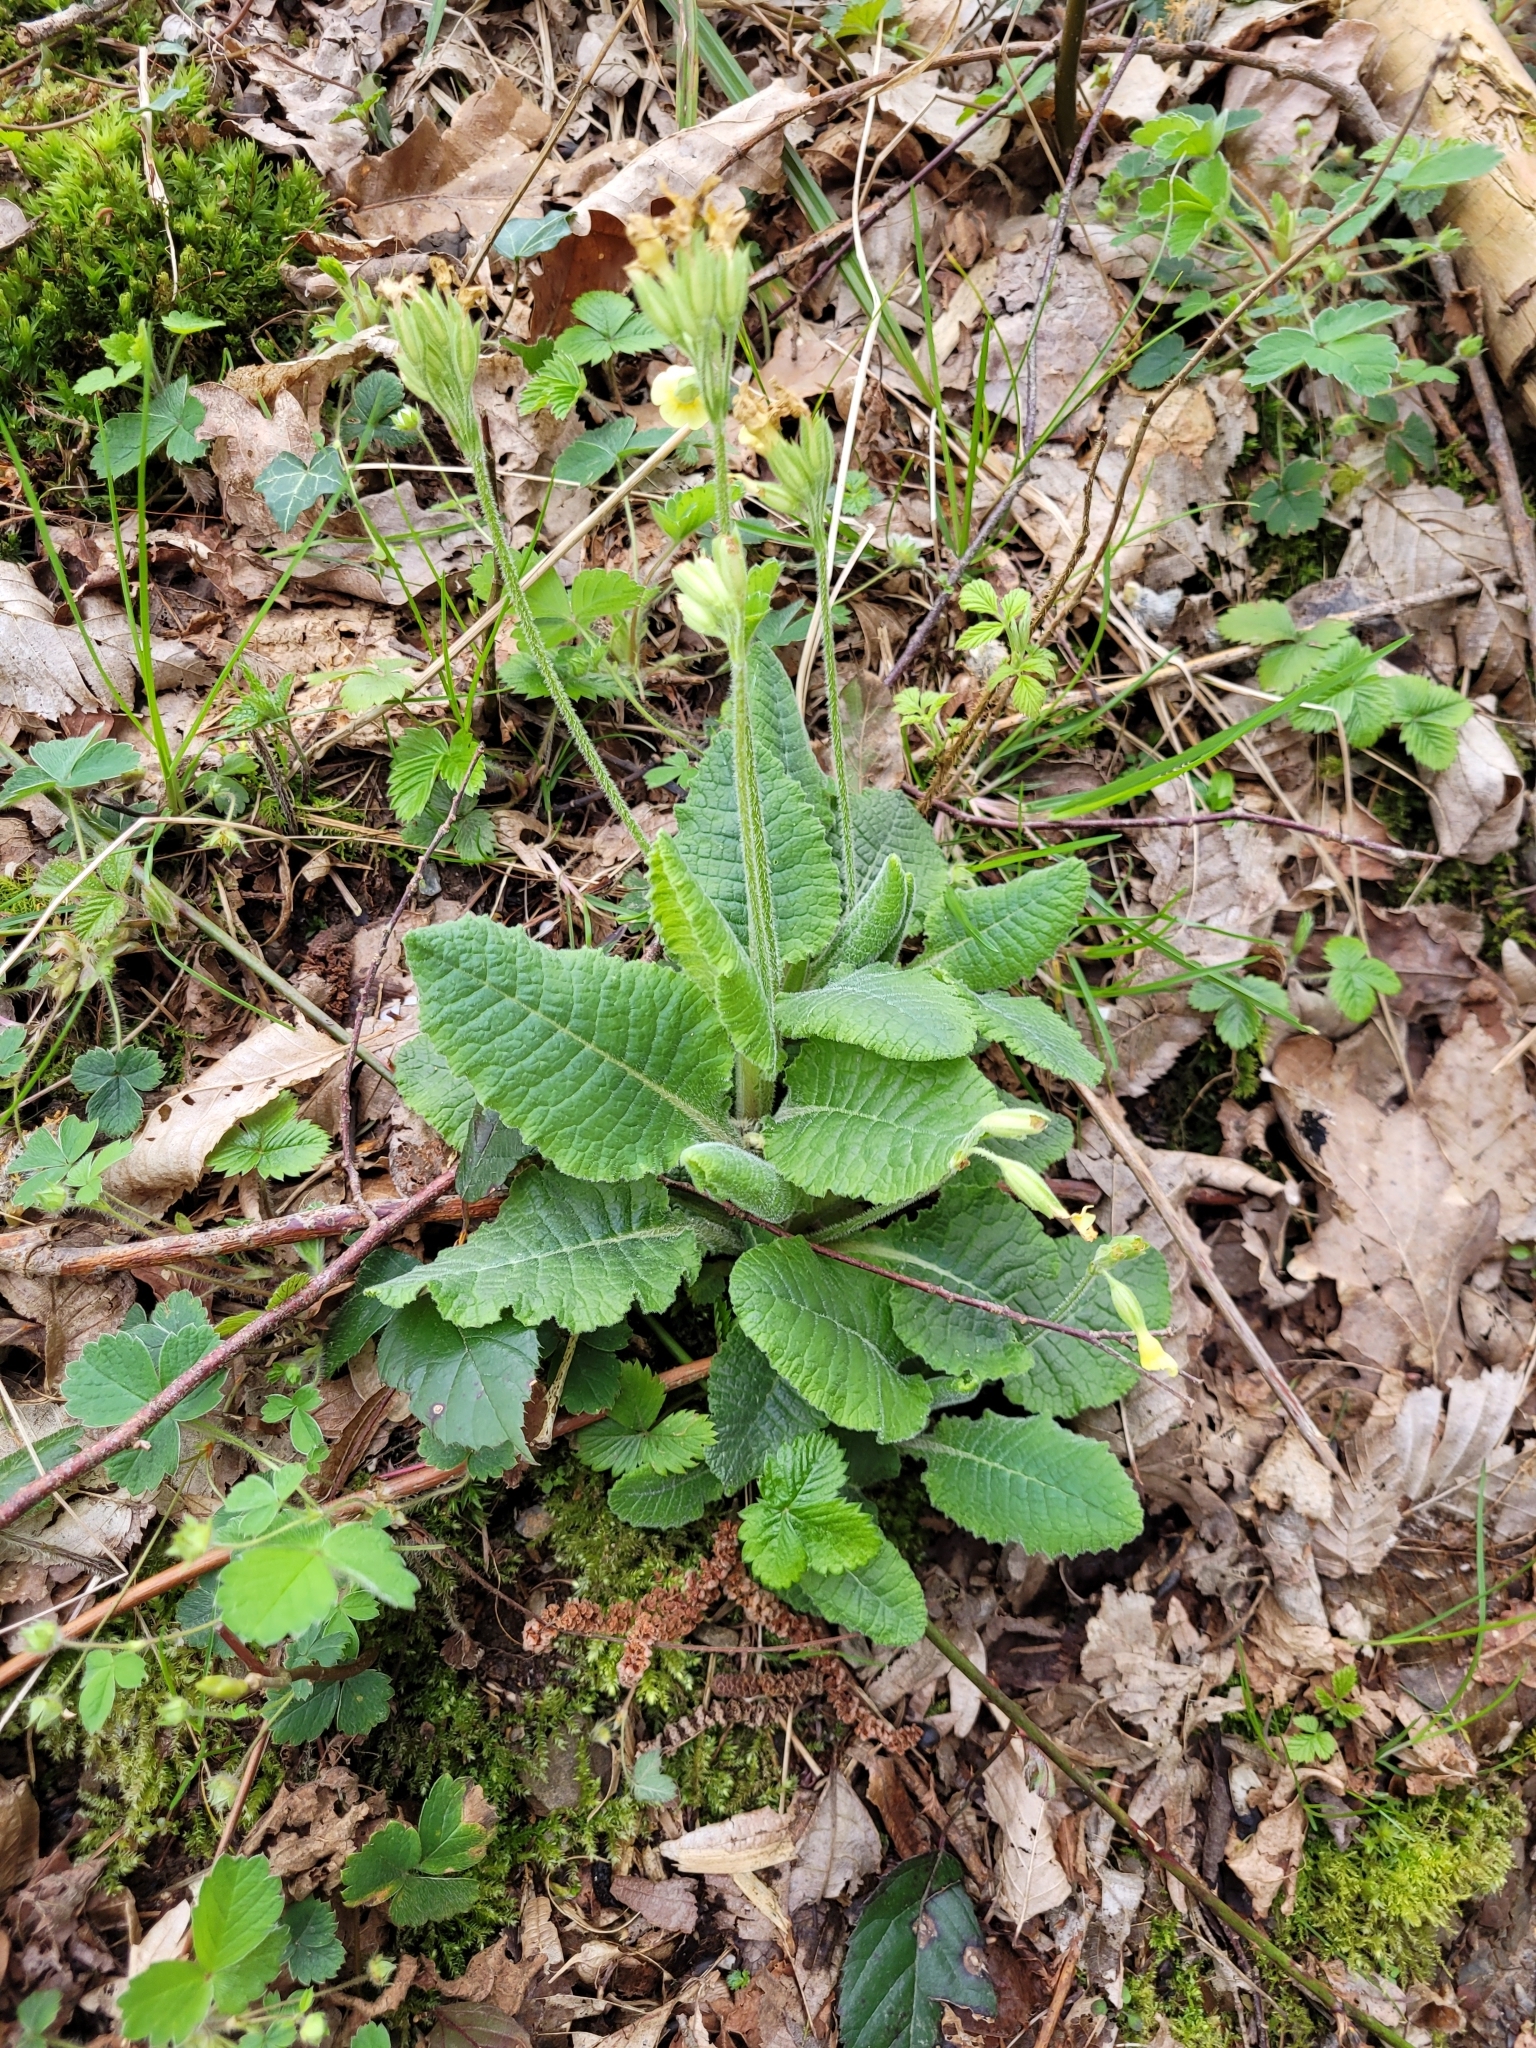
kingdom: Plantae
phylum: Tracheophyta
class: Magnoliopsida
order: Ericales
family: Primulaceae
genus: Primula
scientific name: Primula elatior
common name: Oxlip
